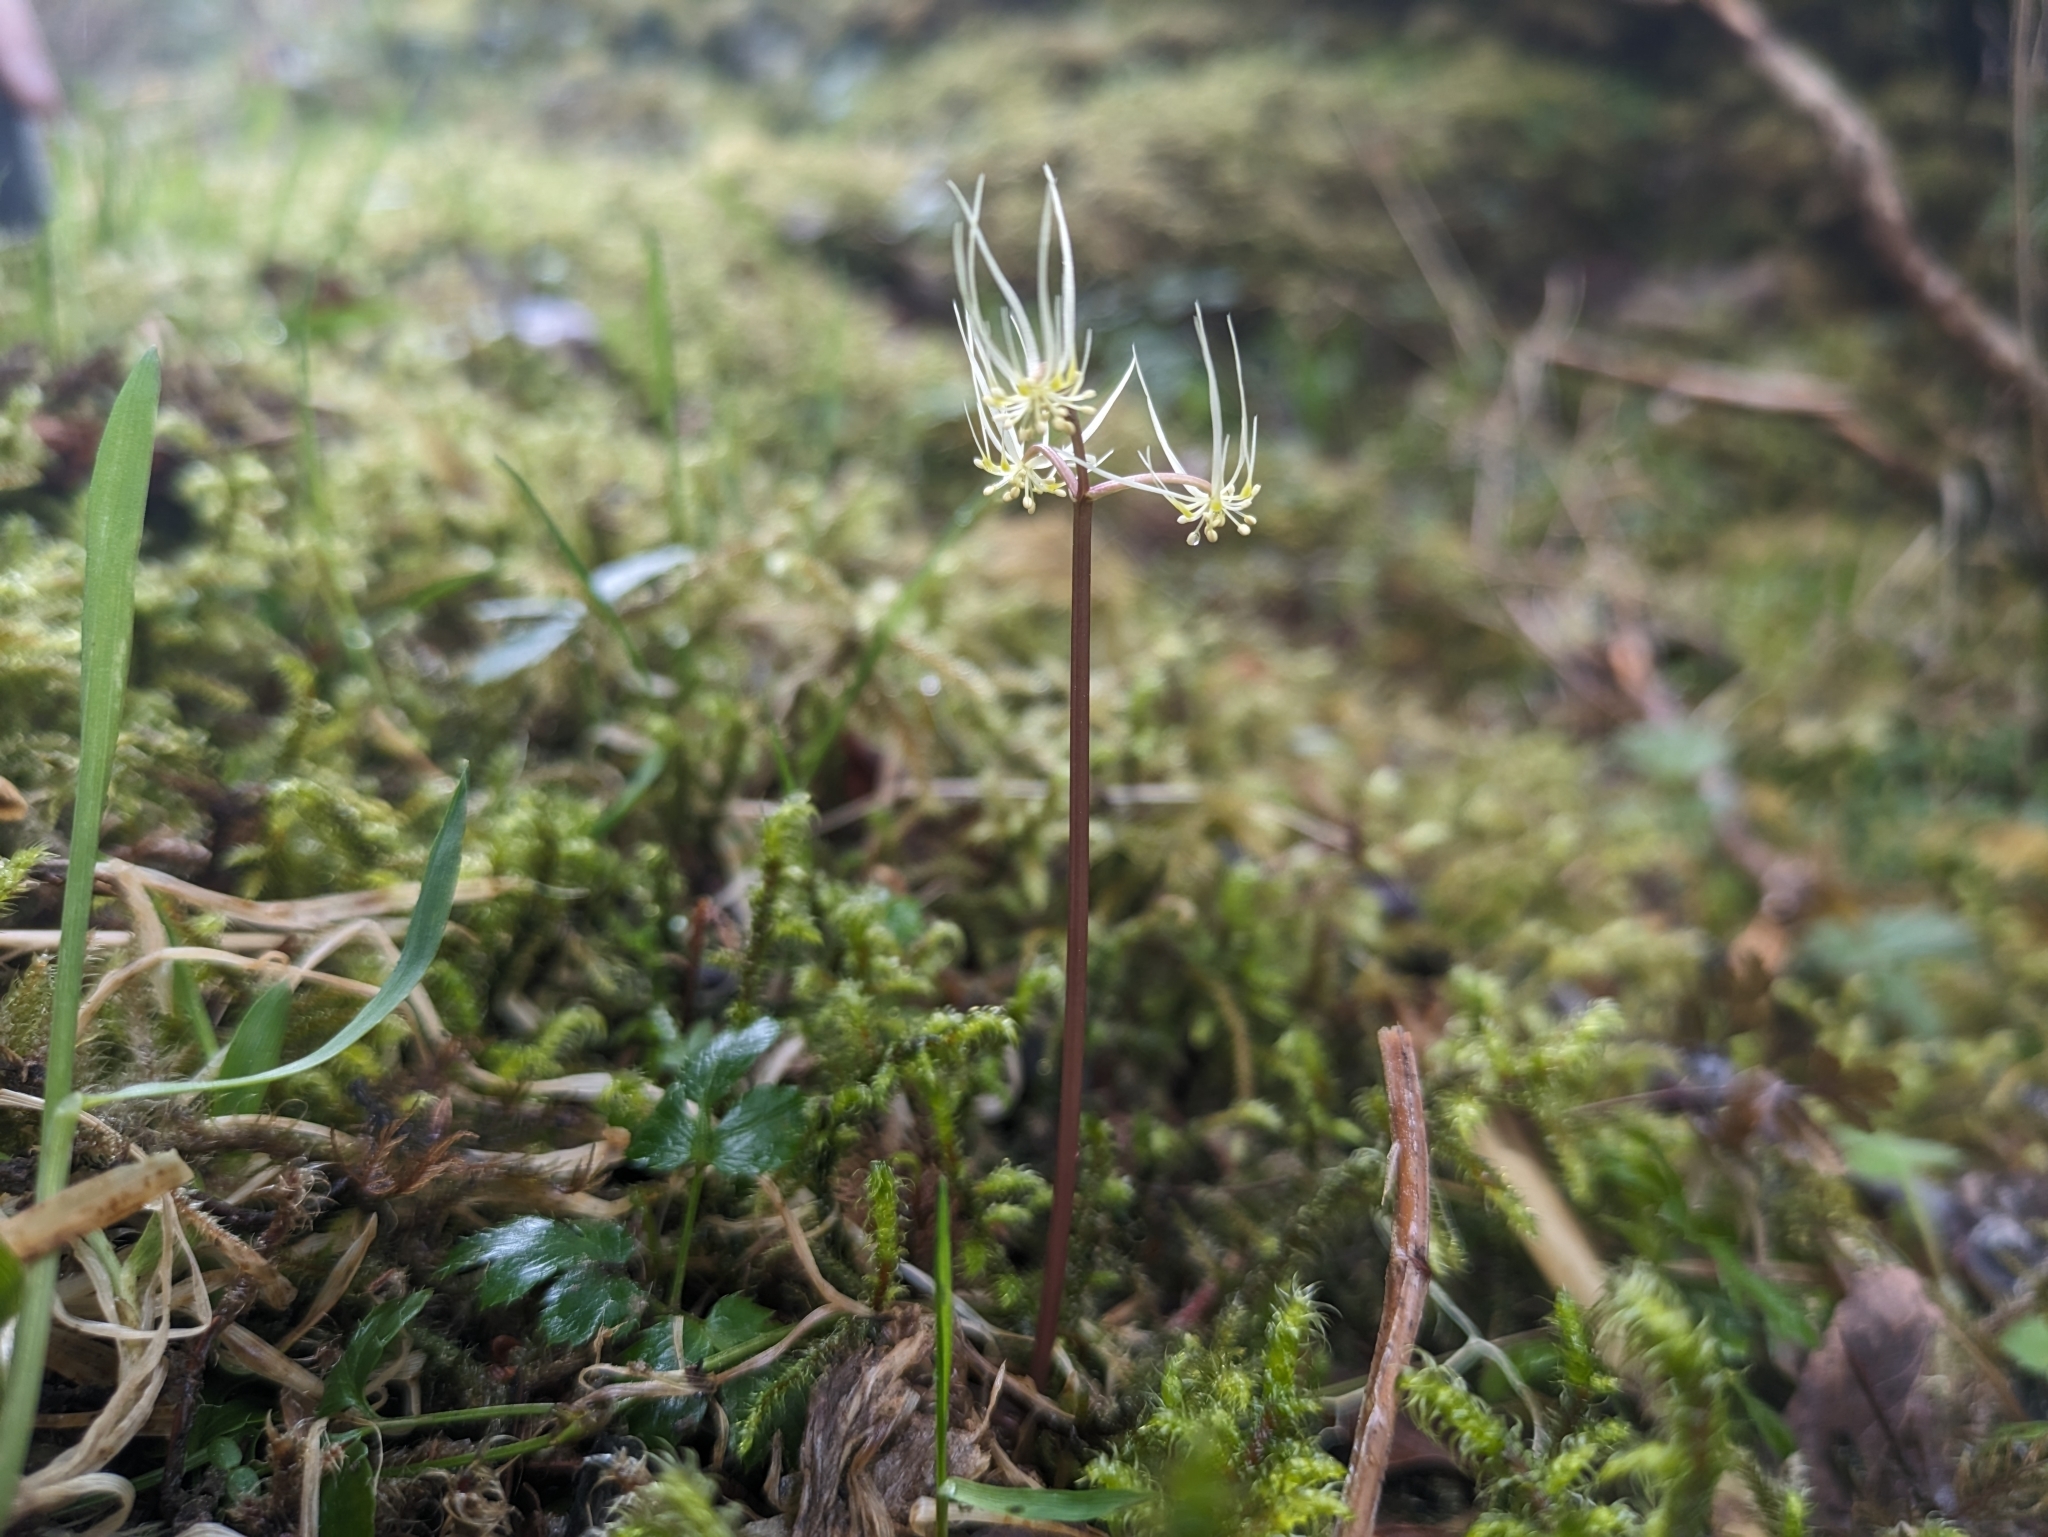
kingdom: Plantae
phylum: Tracheophyta
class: Magnoliopsida
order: Ranunculales
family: Ranunculaceae
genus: Coptis
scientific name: Coptis aspleniifolia
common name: Fern-leaved goldthread
